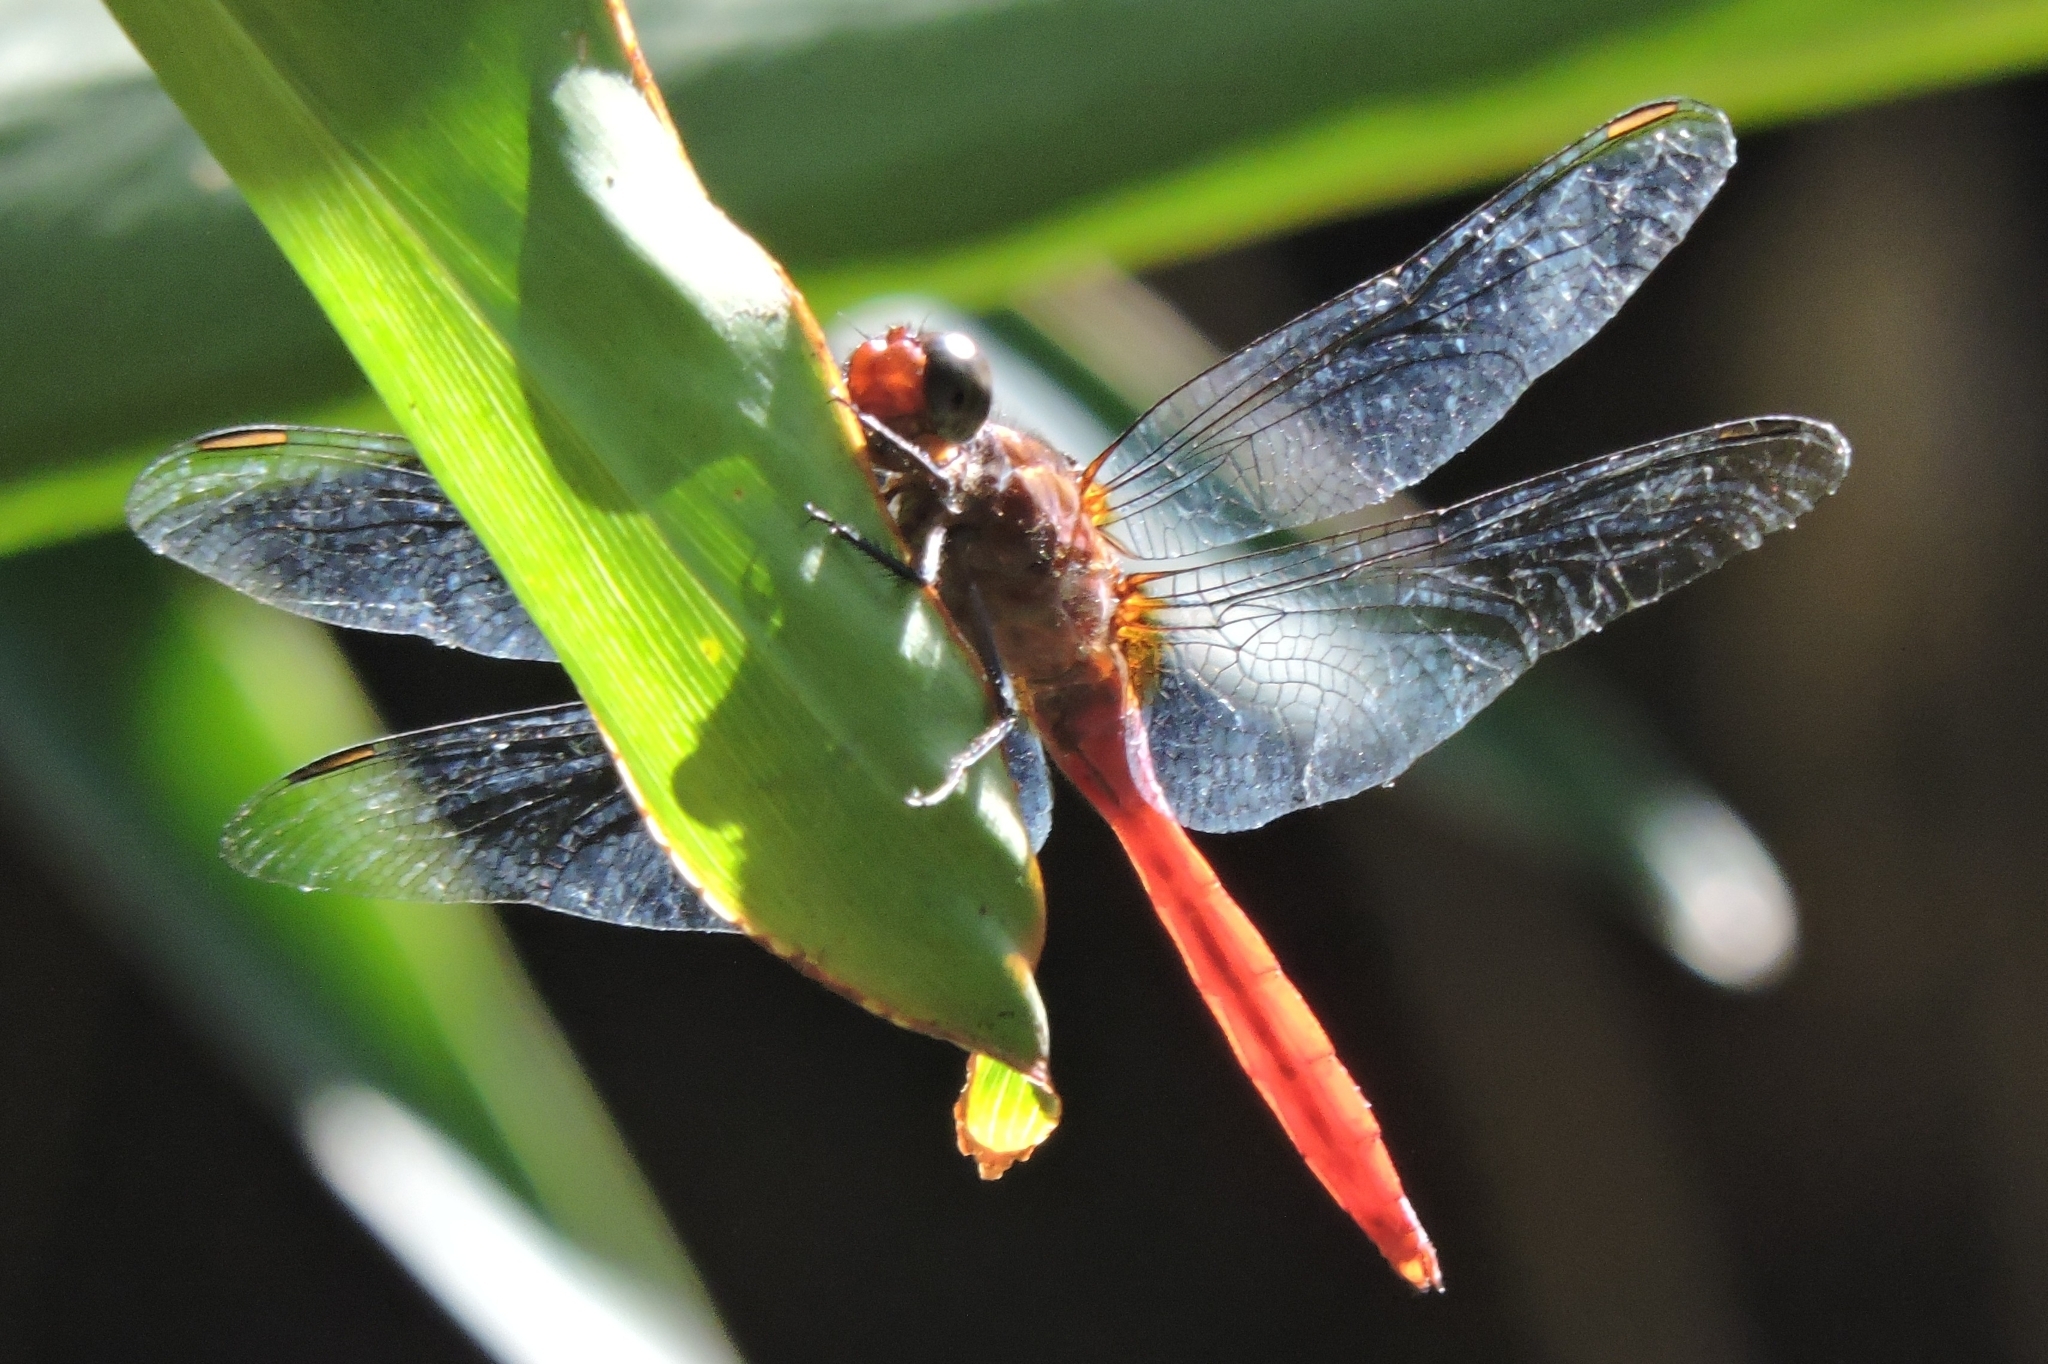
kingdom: Animalia
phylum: Arthropoda
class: Insecta
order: Odonata
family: Libellulidae
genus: Orthetrum
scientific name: Orthetrum villosovittatum
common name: Firery skimmer
